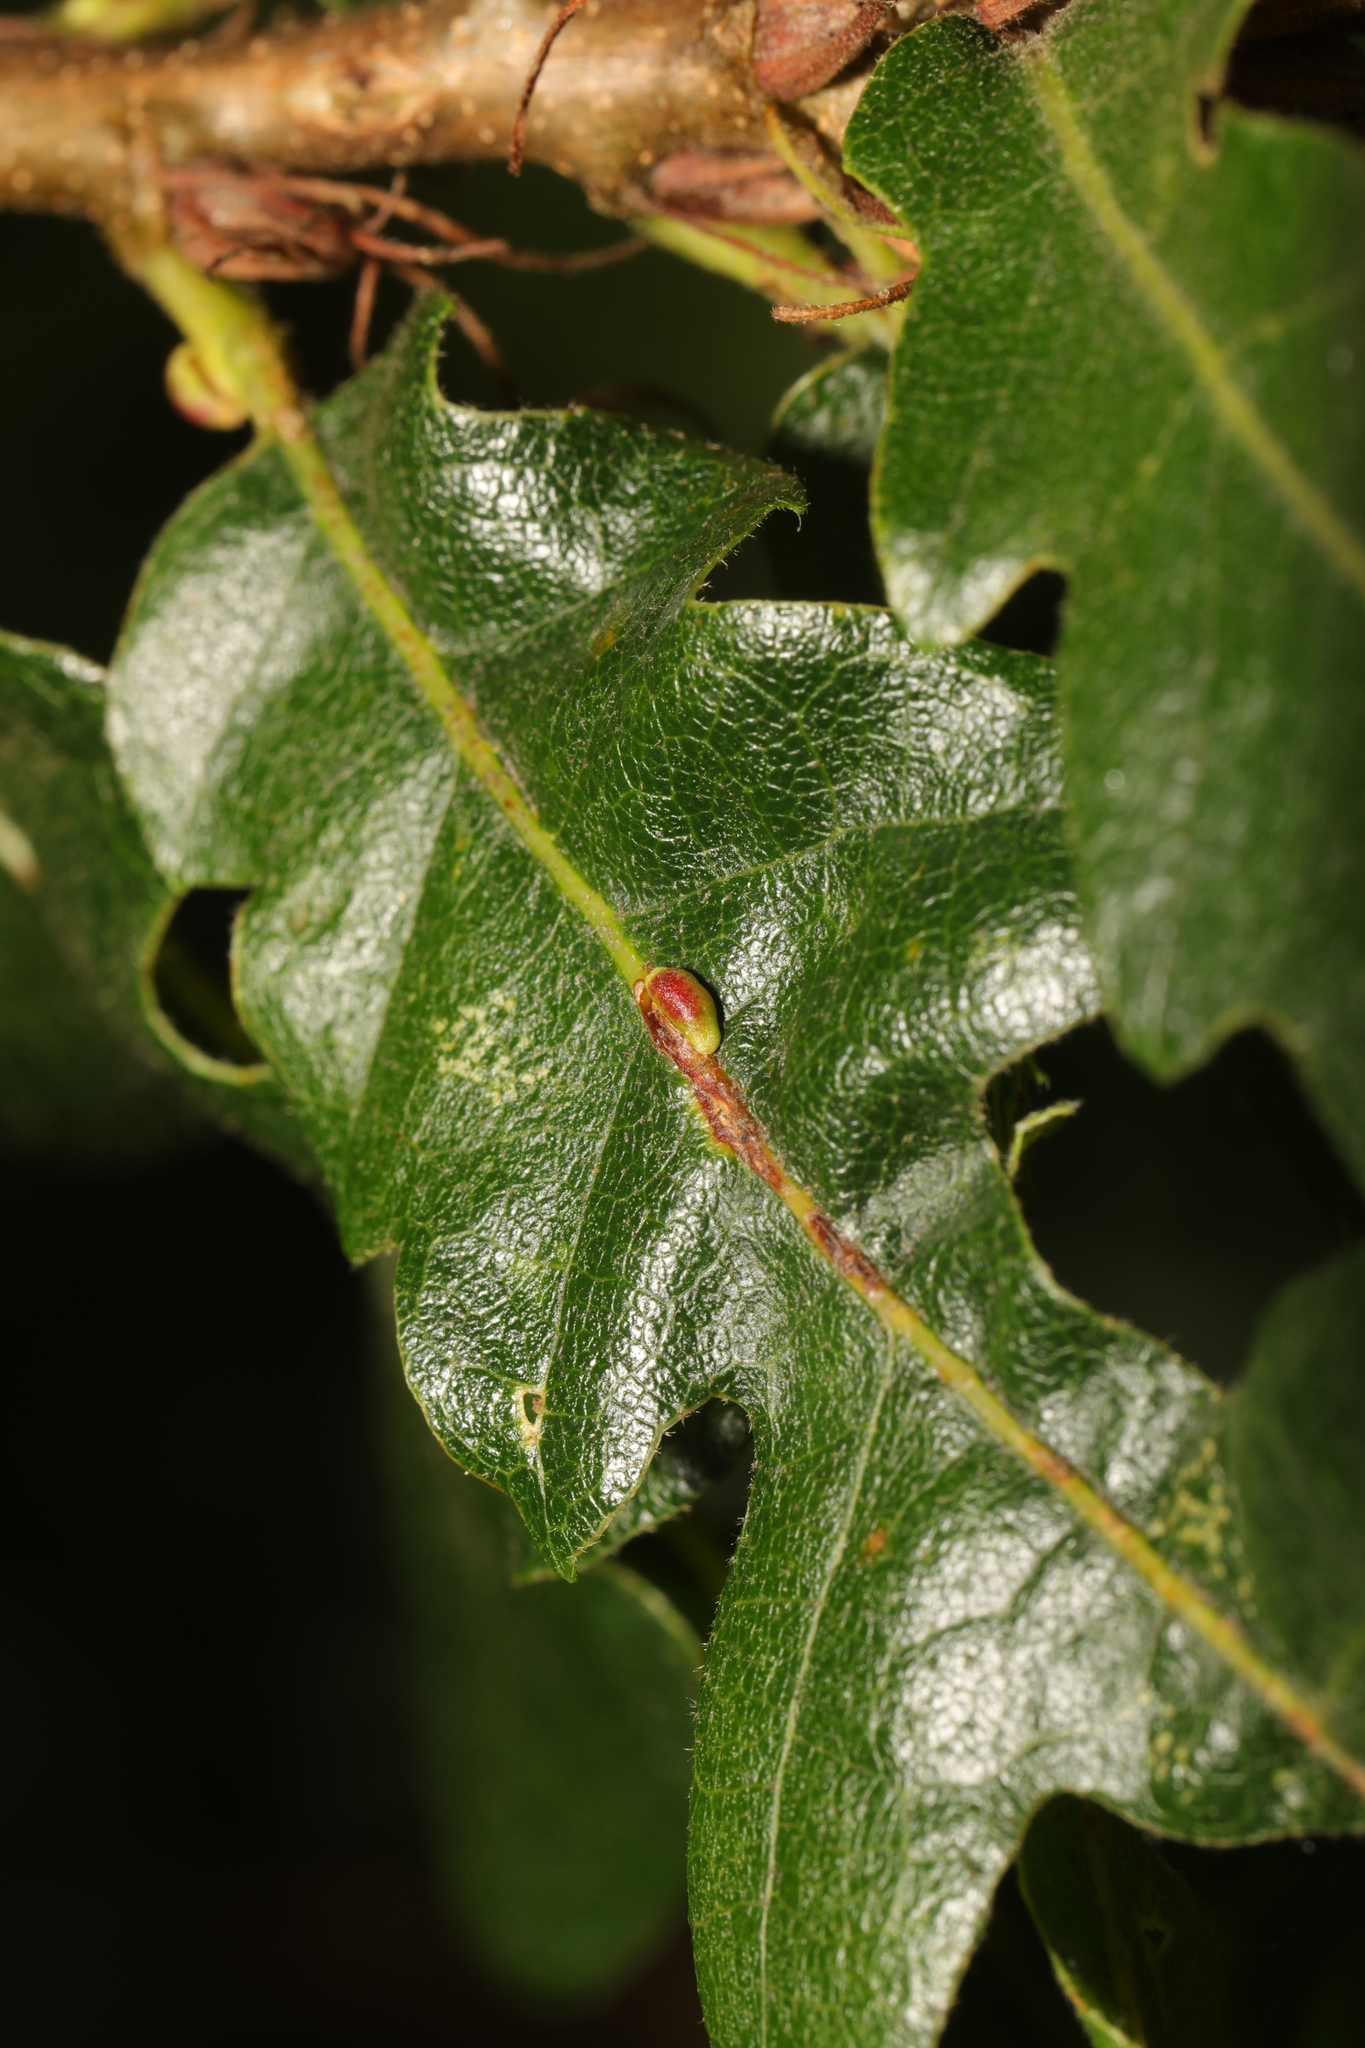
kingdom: Animalia
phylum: Arthropoda
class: Insecta
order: Hymenoptera
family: Cynipidae
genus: Neuroterus
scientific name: Neuroterus saliens
